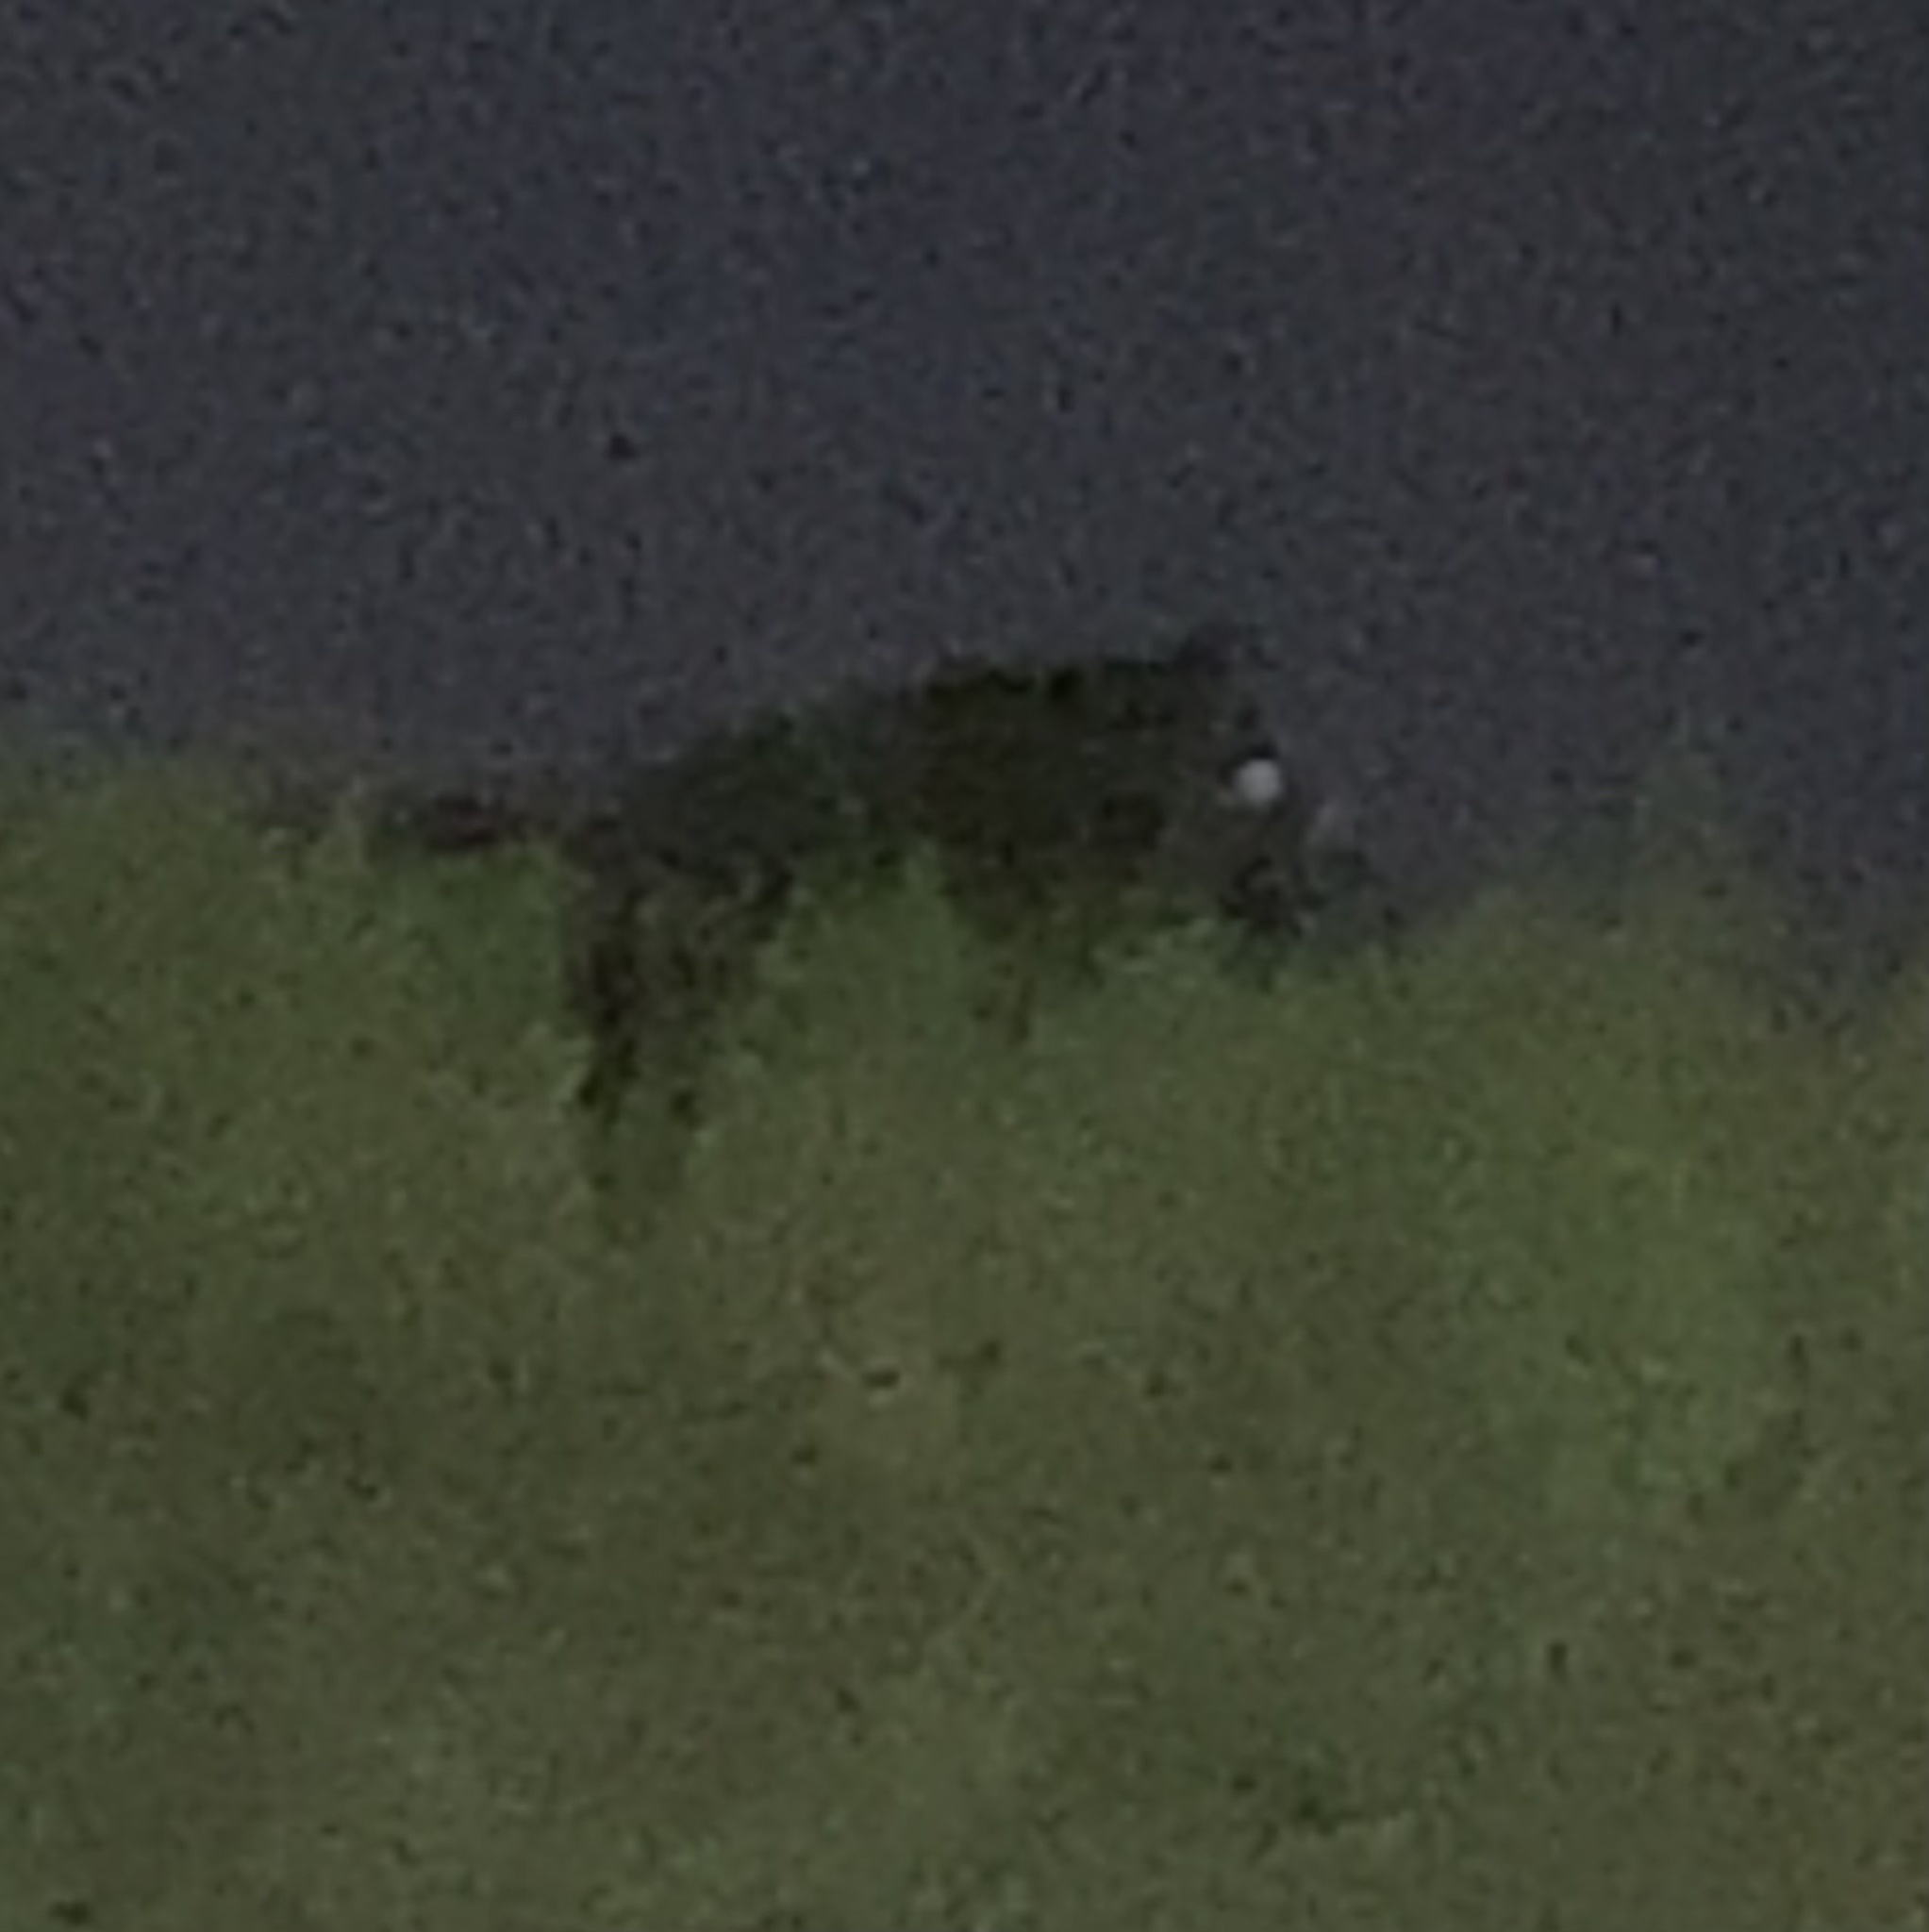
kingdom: Animalia
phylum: Chordata
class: Mammalia
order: Artiodactyla
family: Suidae
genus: Sus
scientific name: Sus scrofa
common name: Wild boar
